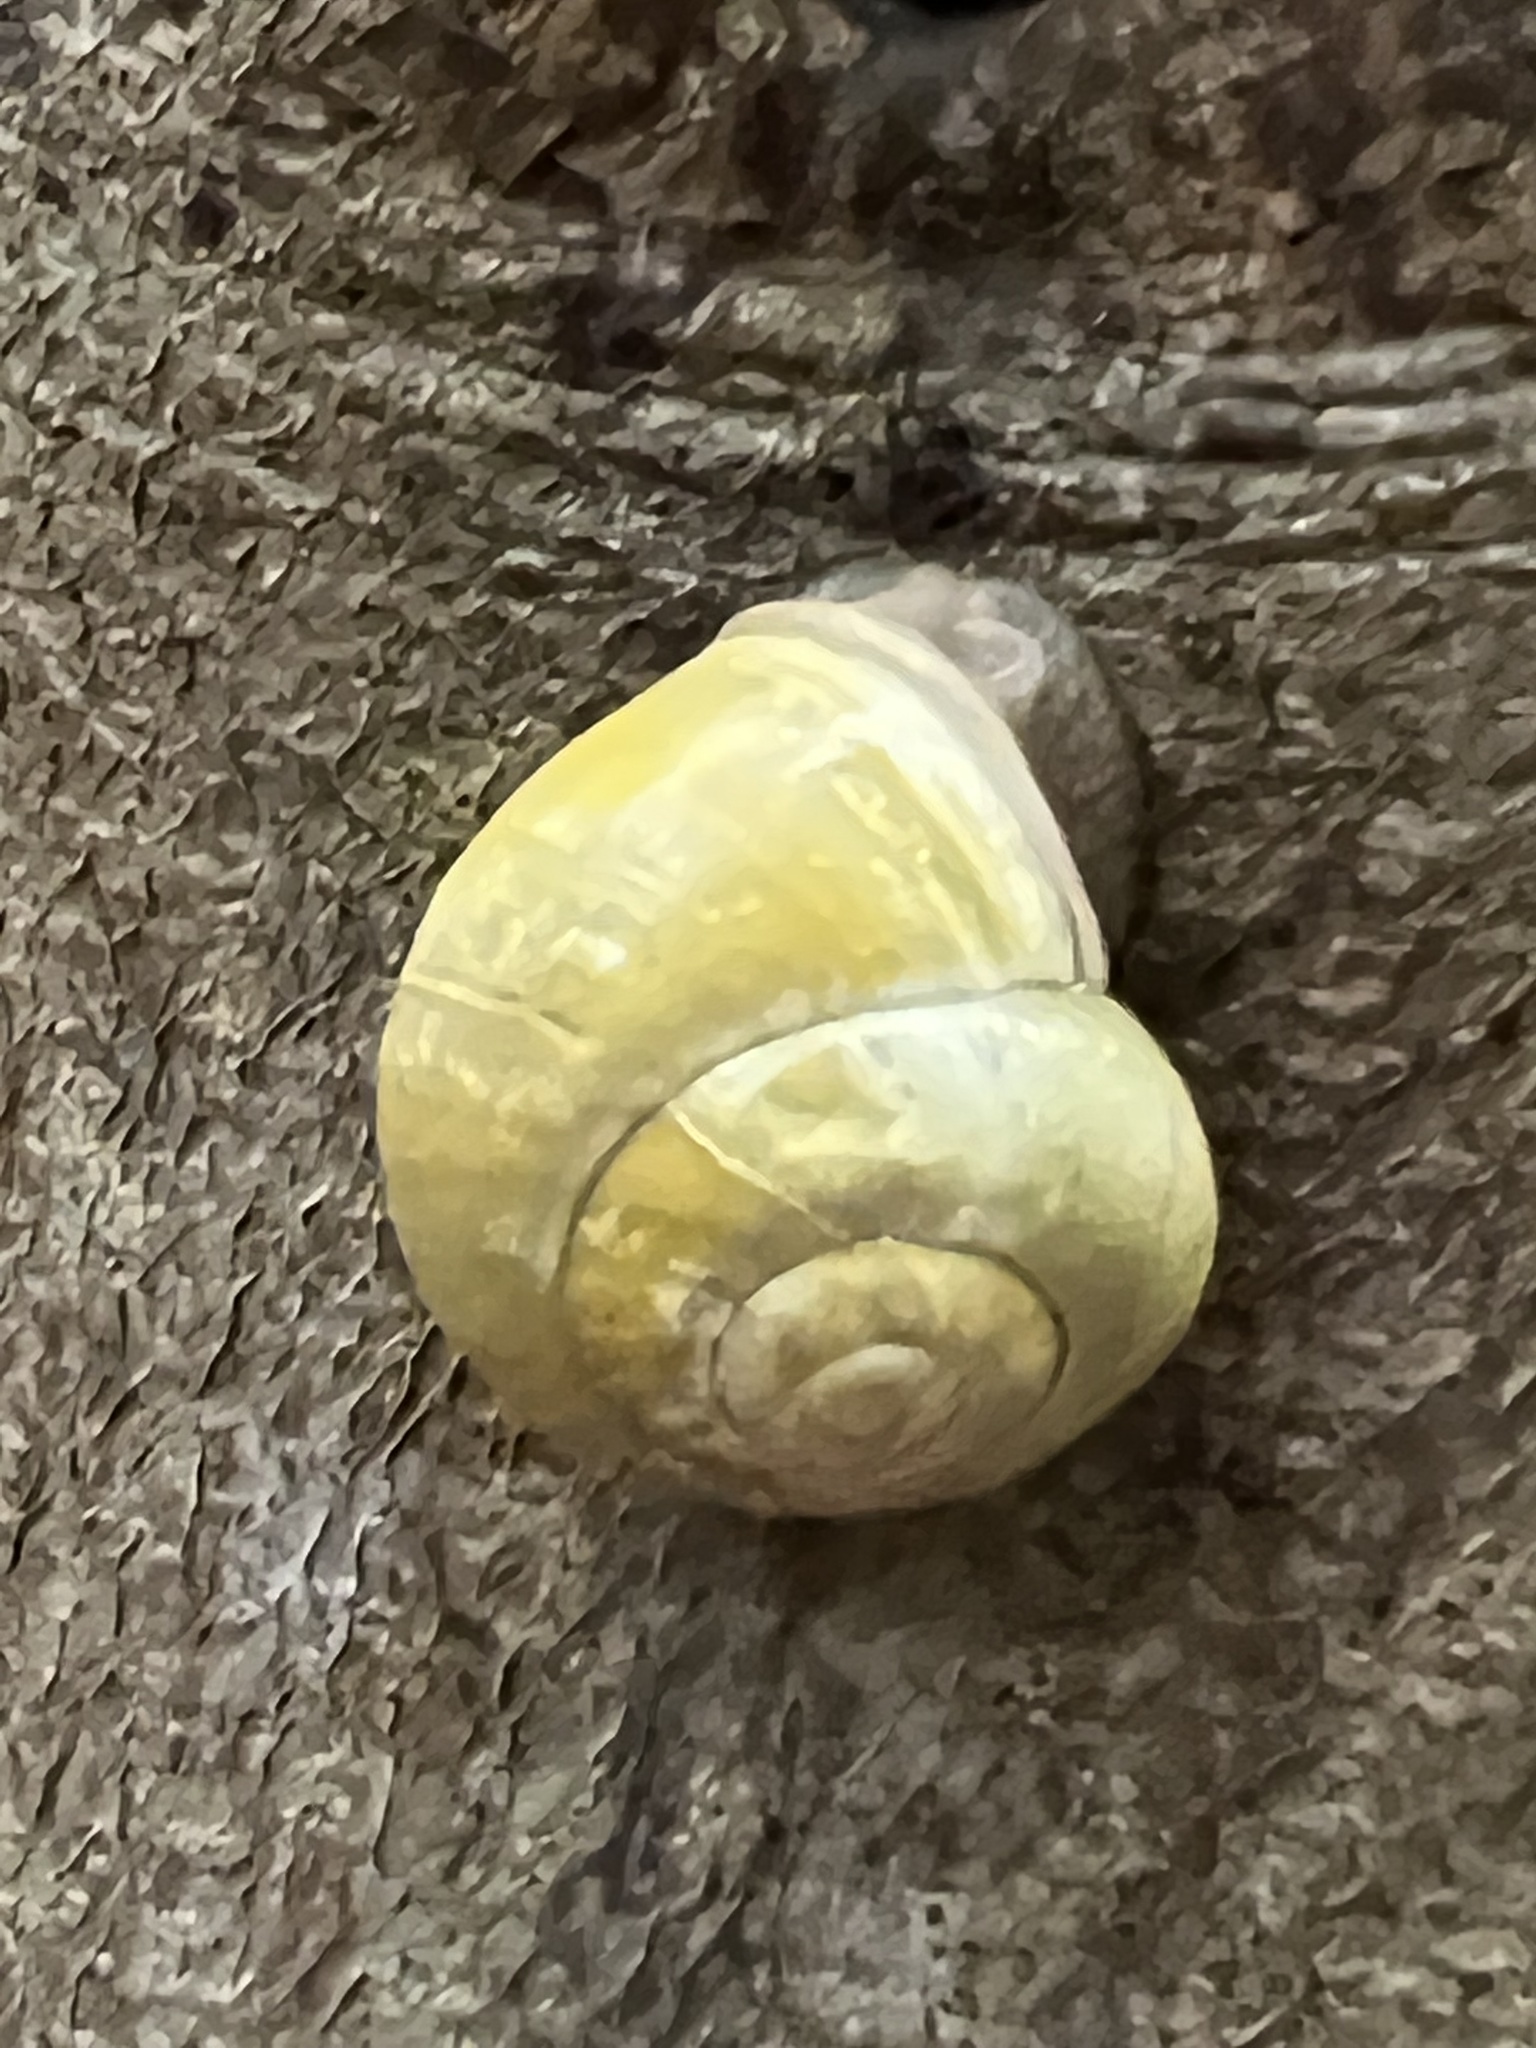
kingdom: Animalia
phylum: Mollusca
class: Gastropoda
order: Stylommatophora
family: Helicidae
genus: Cepaea
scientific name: Cepaea hortensis
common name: White-lip gardensnail
